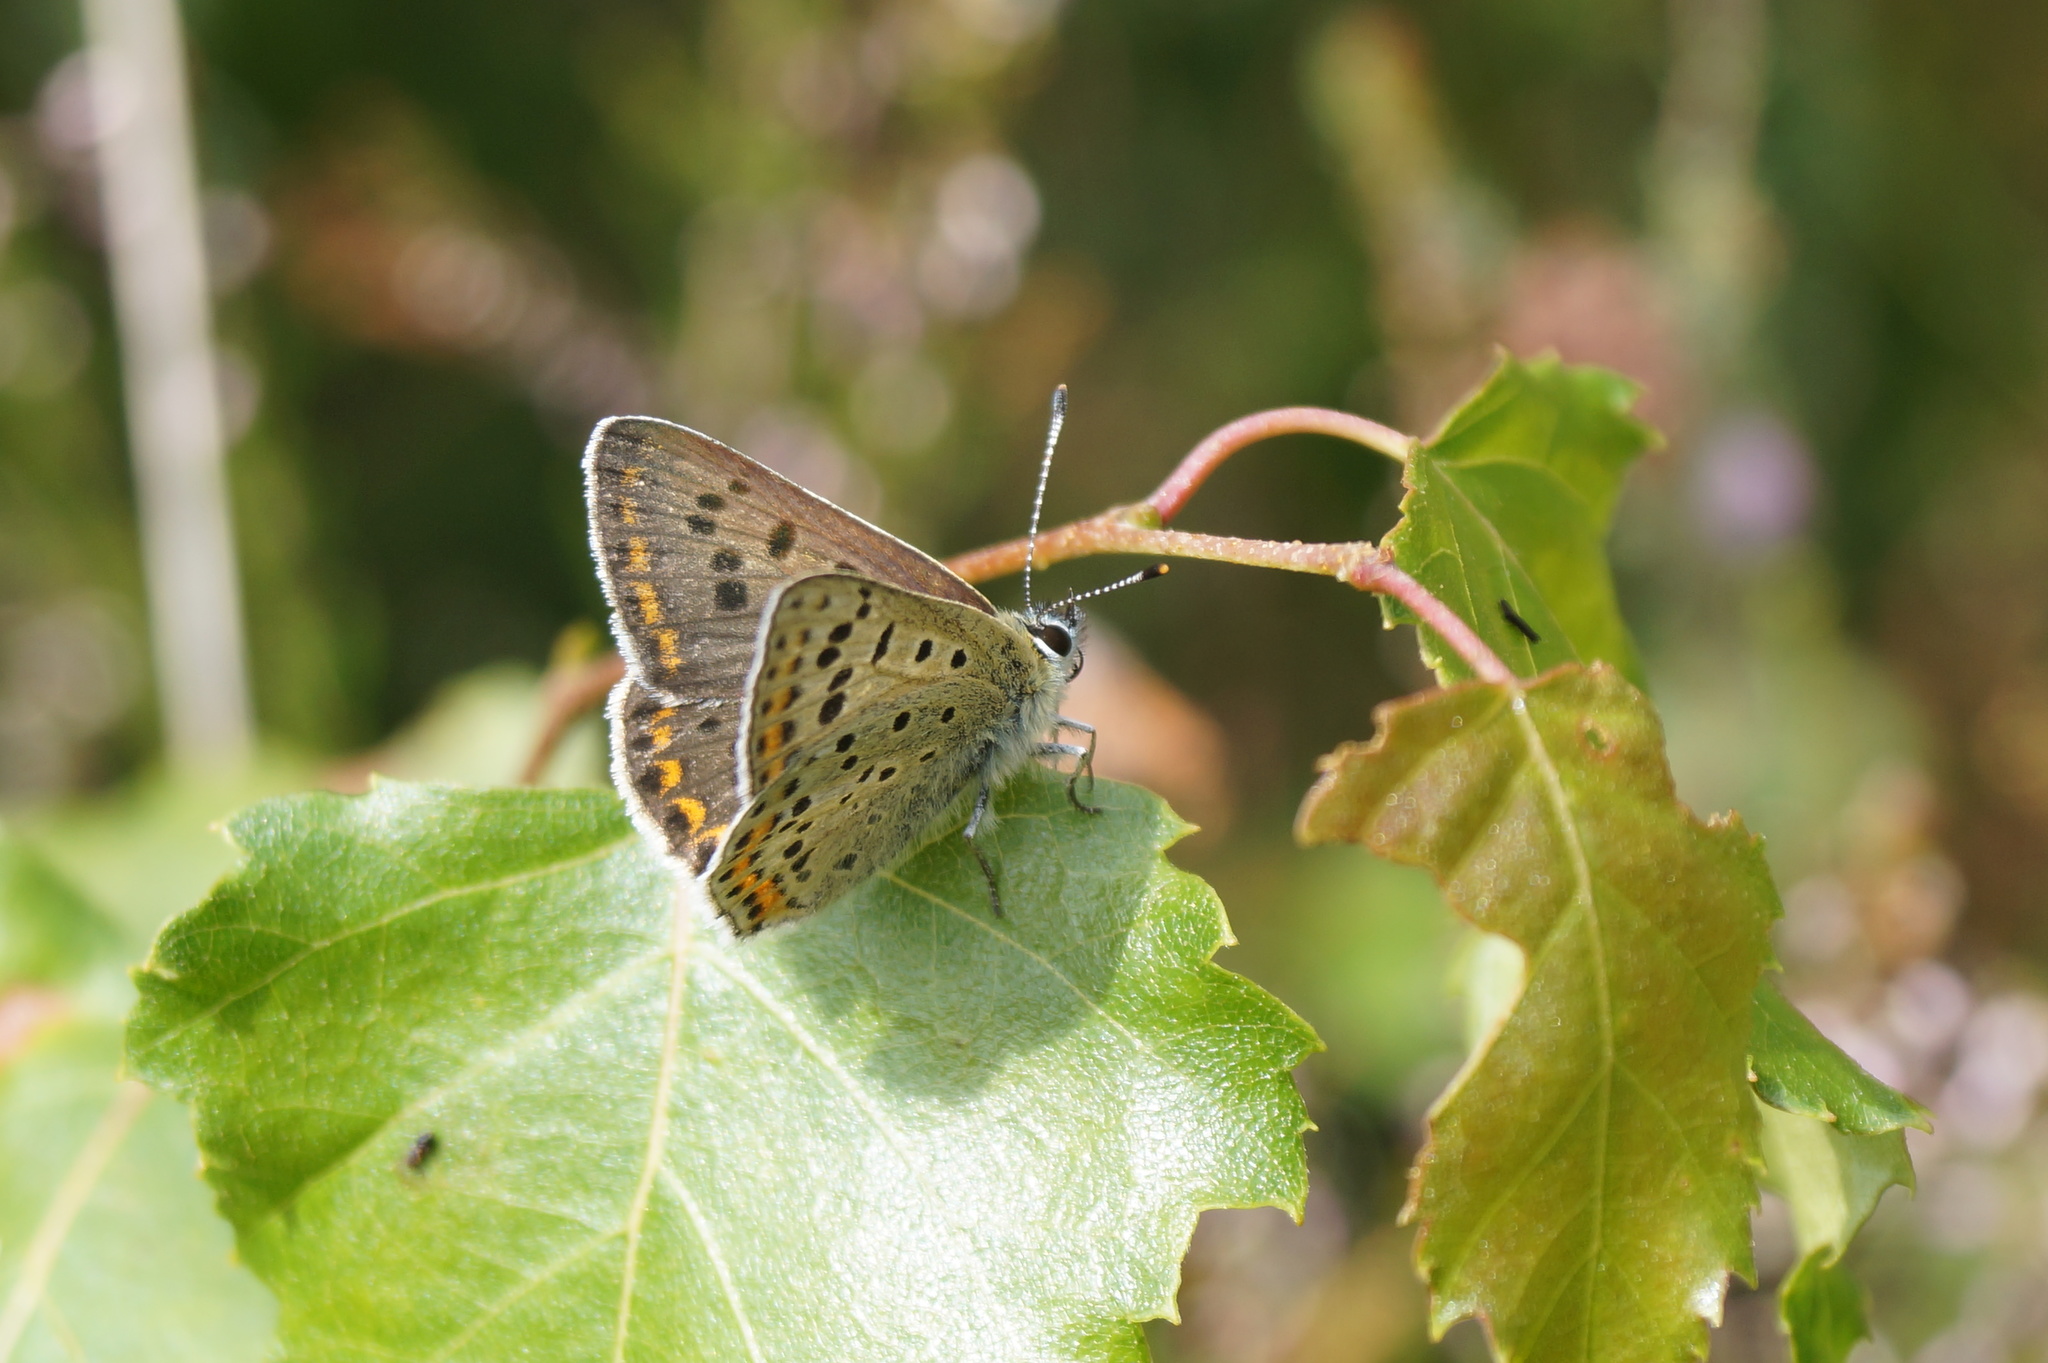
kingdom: Animalia
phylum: Arthropoda
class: Insecta
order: Lepidoptera
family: Lycaenidae
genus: Loweia
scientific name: Loweia tityrus
